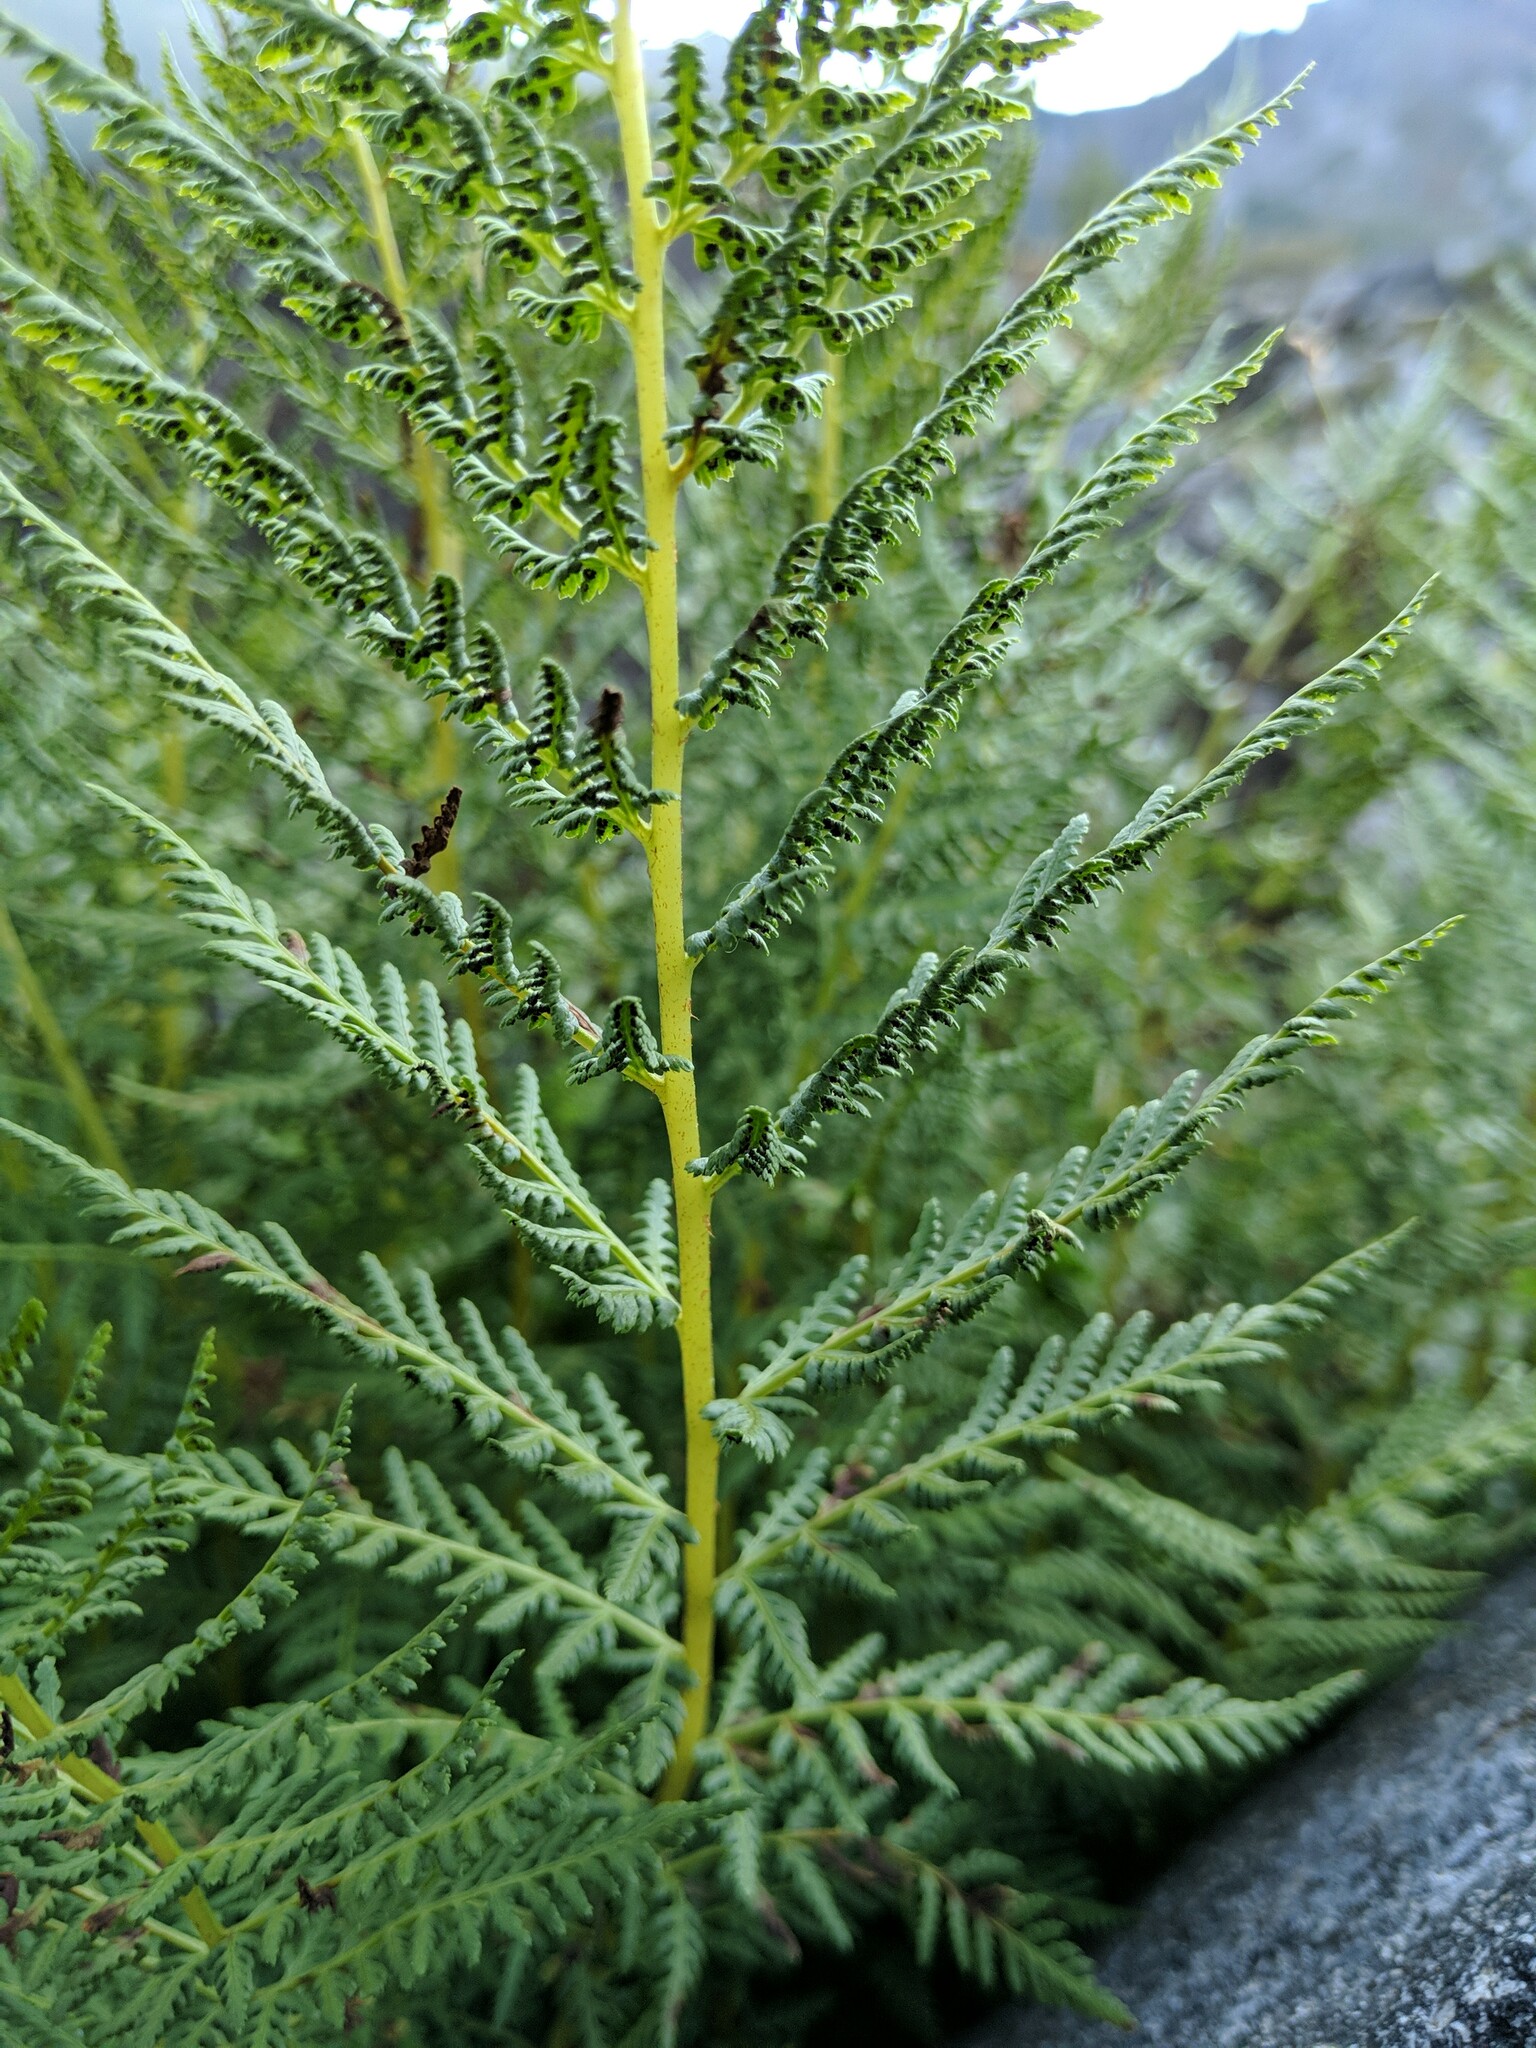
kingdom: Plantae
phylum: Tracheophyta
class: Polypodiopsida
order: Polypodiales
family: Athyriaceae
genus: Athyrium
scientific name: Athyrium americanum
